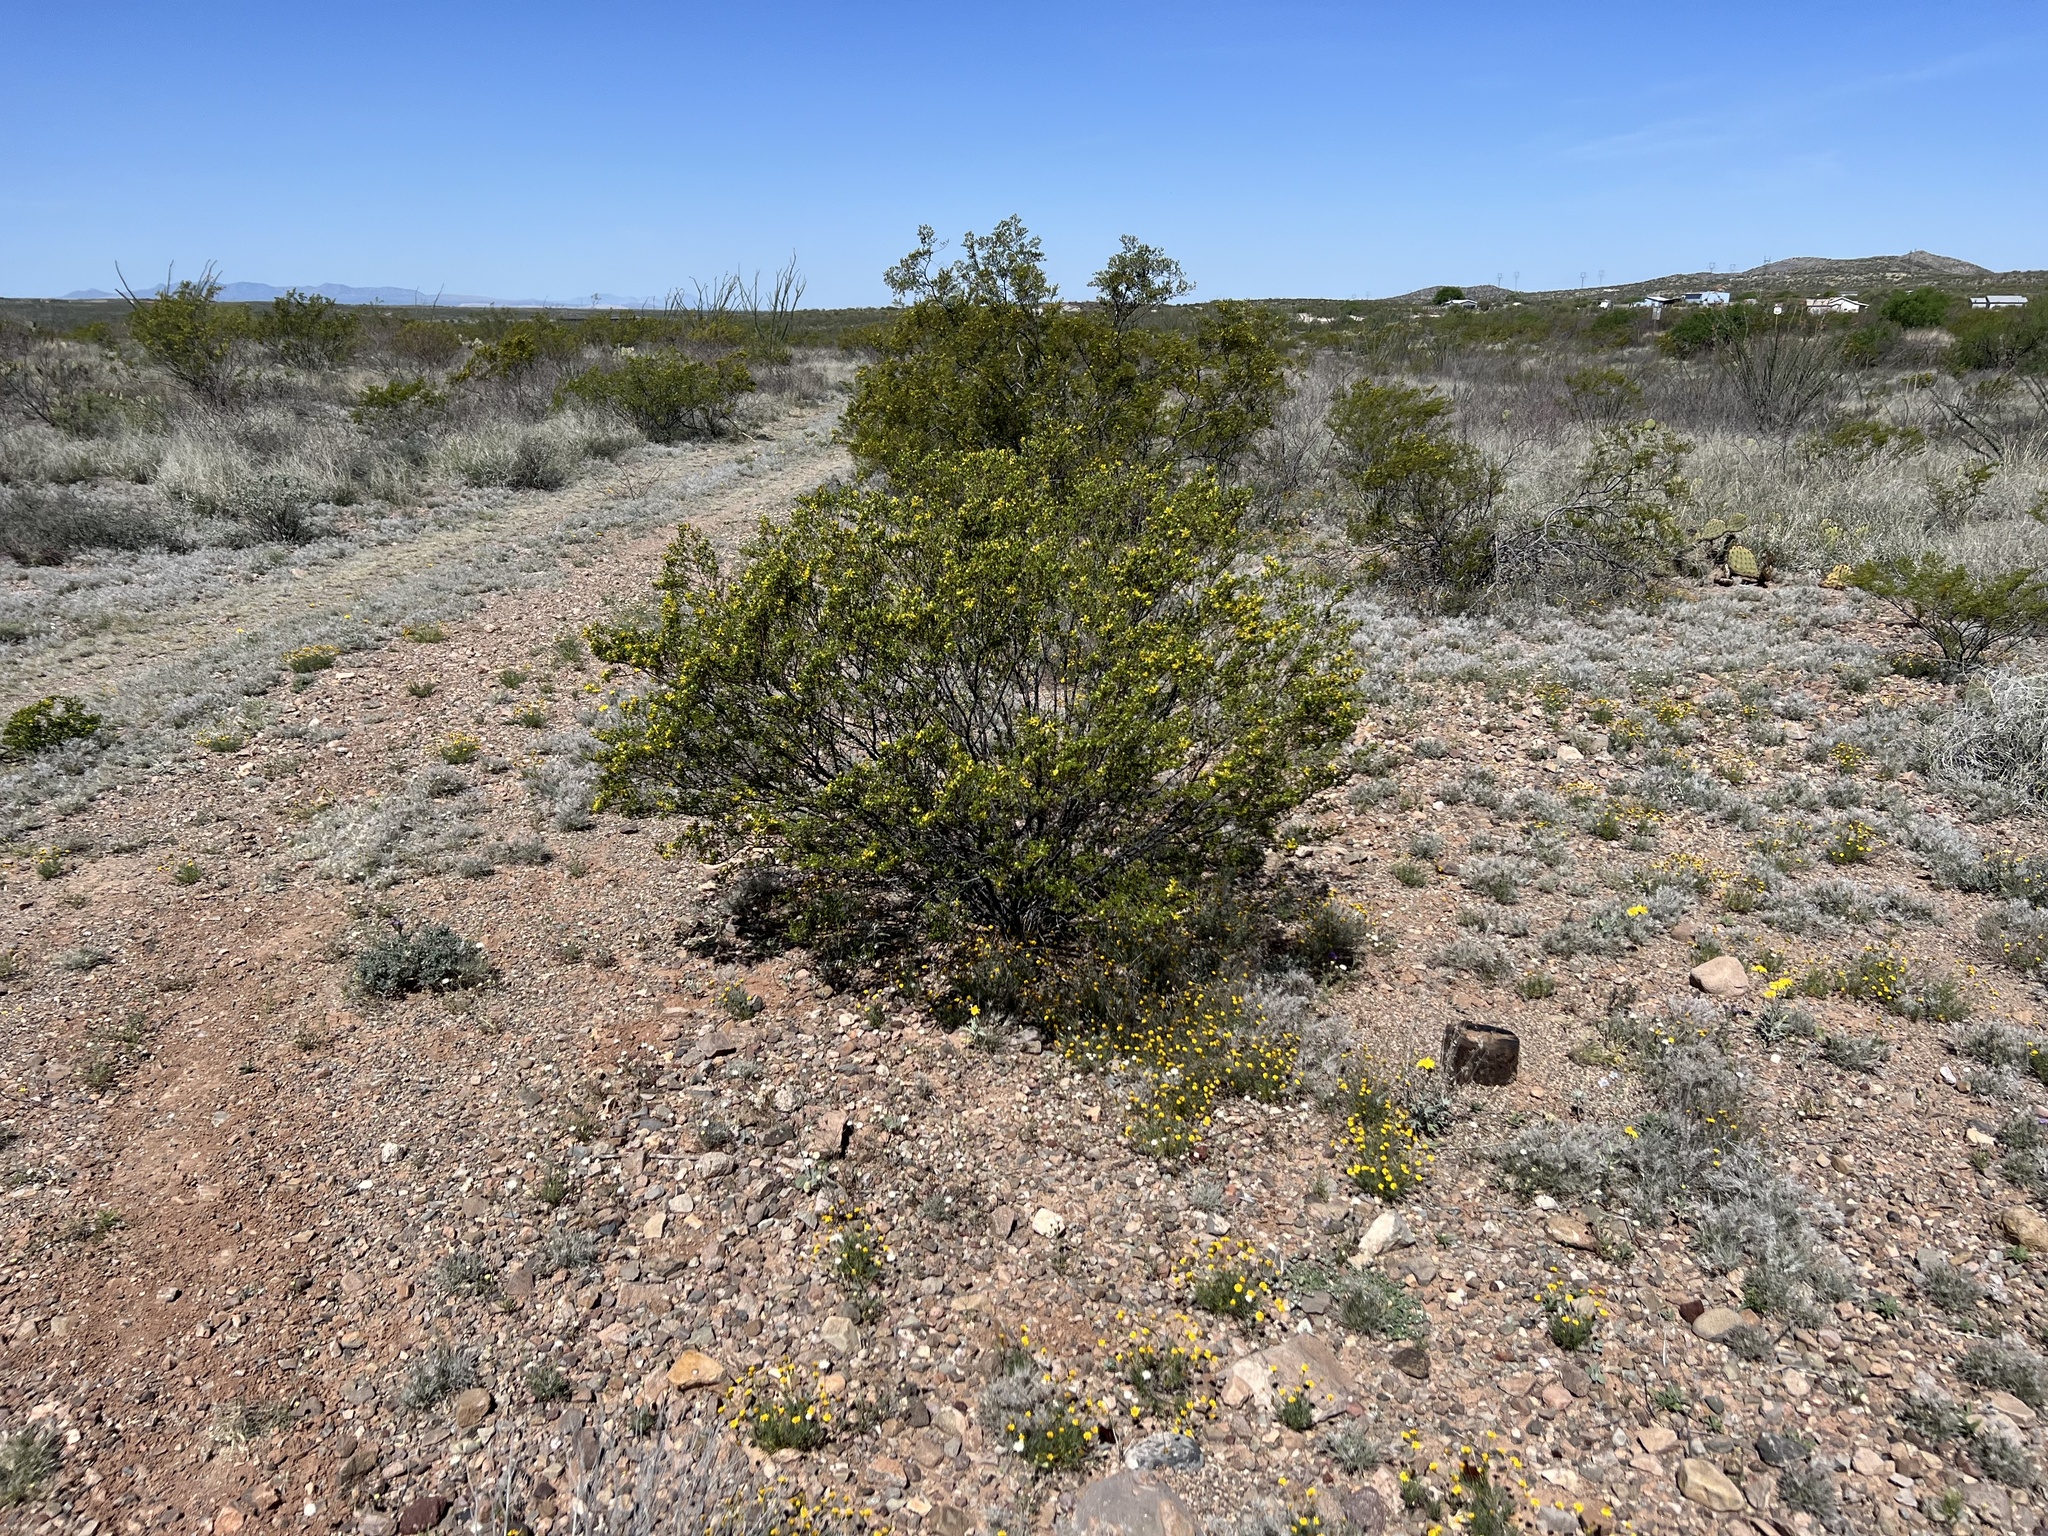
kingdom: Plantae
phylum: Tracheophyta
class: Magnoliopsida
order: Zygophyllales
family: Zygophyllaceae
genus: Larrea
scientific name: Larrea tridentata
